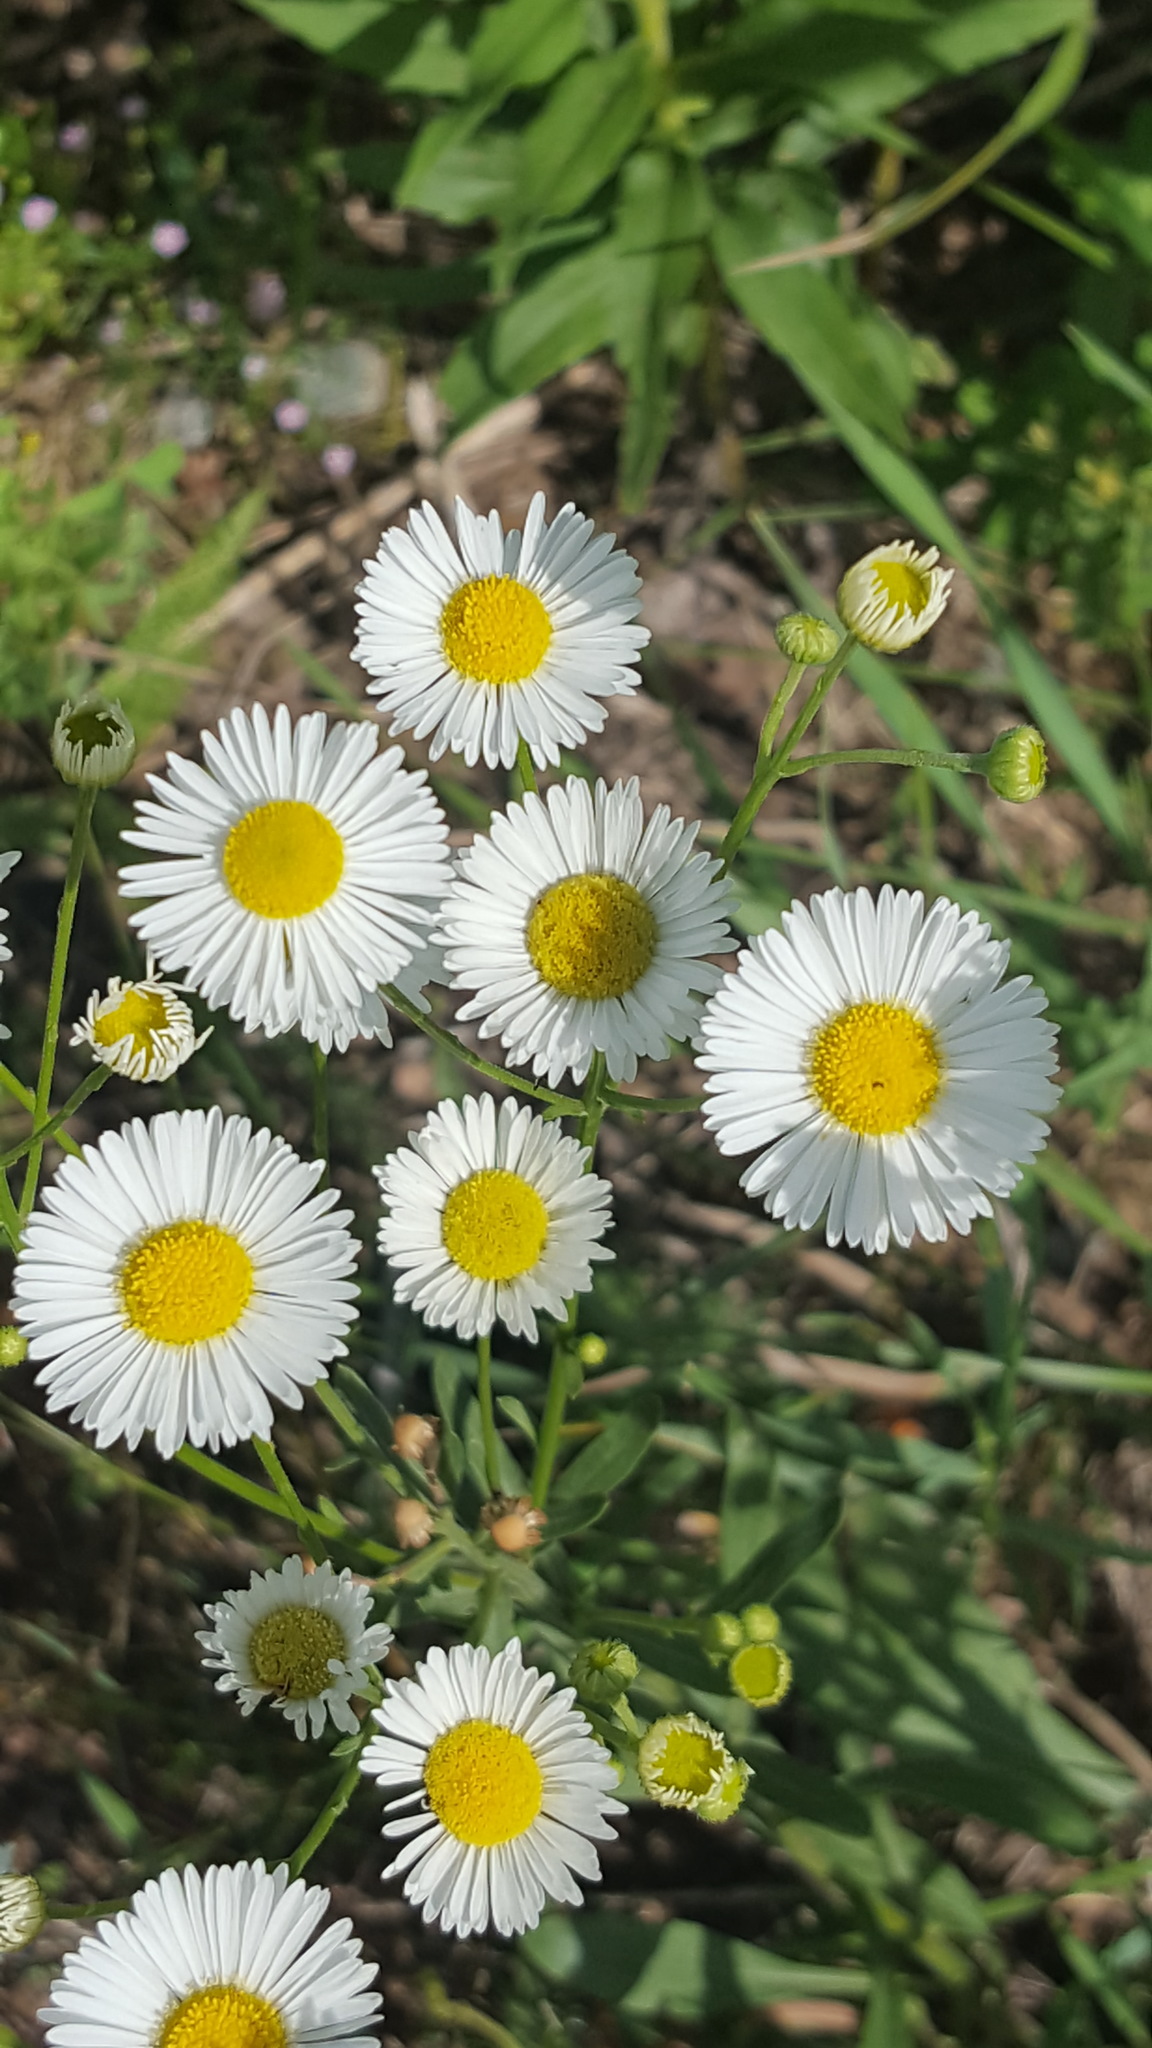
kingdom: Plantae
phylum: Tracheophyta
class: Magnoliopsida
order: Asterales
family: Asteraceae
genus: Erigeron
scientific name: Erigeron strigosus
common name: Common eastern fleabane
